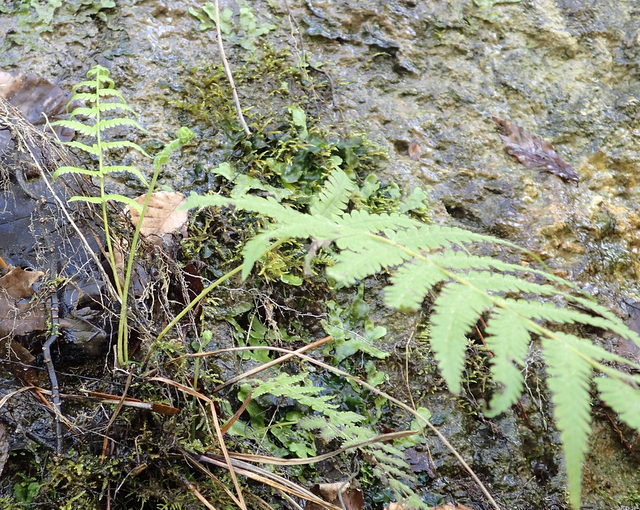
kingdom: Plantae
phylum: Tracheophyta
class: Polypodiopsida
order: Polypodiales
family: Thelypteridaceae
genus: Pelazoneuron
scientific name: Pelazoneuron kunthii
